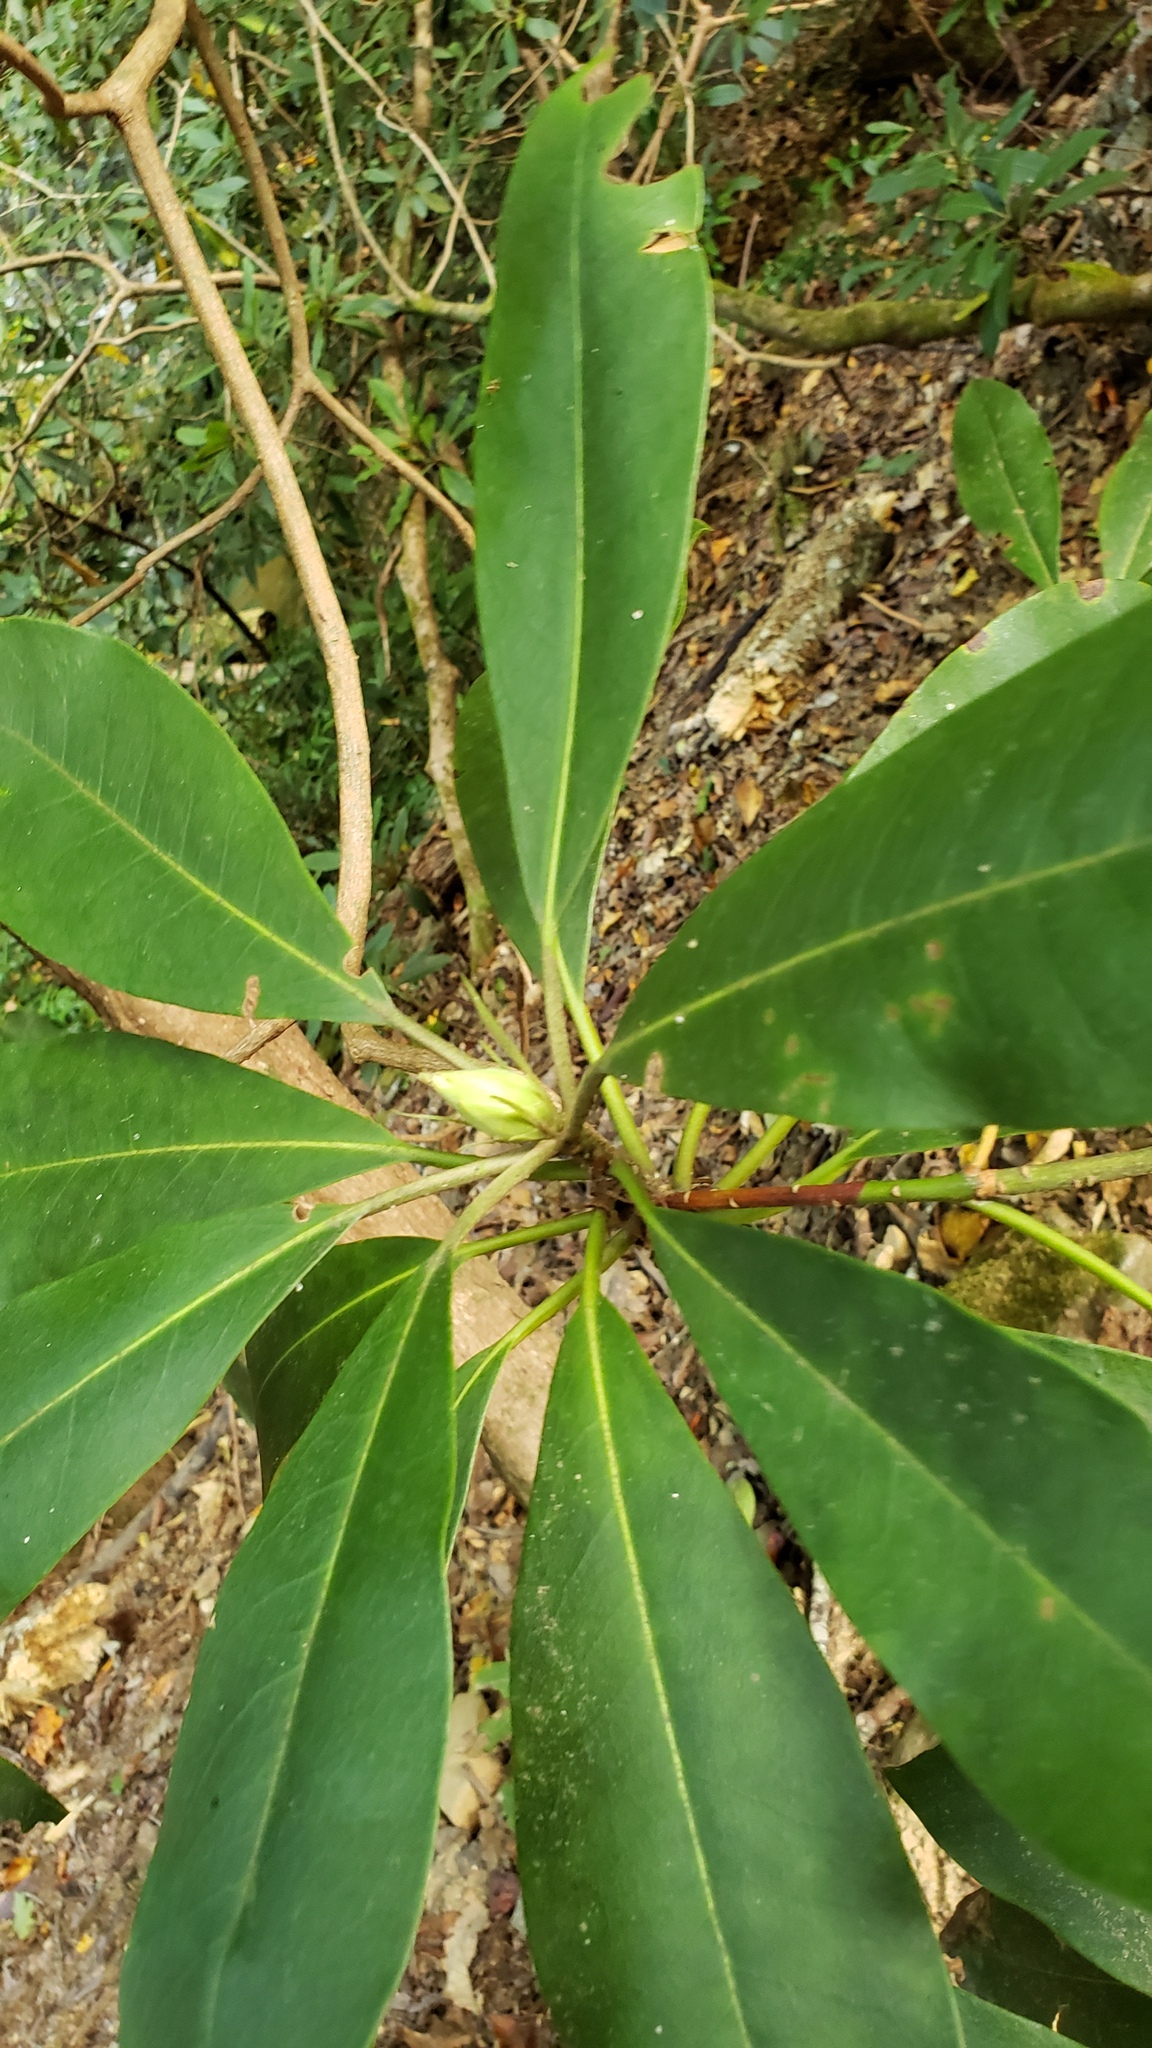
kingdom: Plantae
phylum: Tracheophyta
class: Magnoliopsida
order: Ericales
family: Ericaceae
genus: Rhododendron
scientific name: Rhododendron maximum
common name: Great rhododendron
